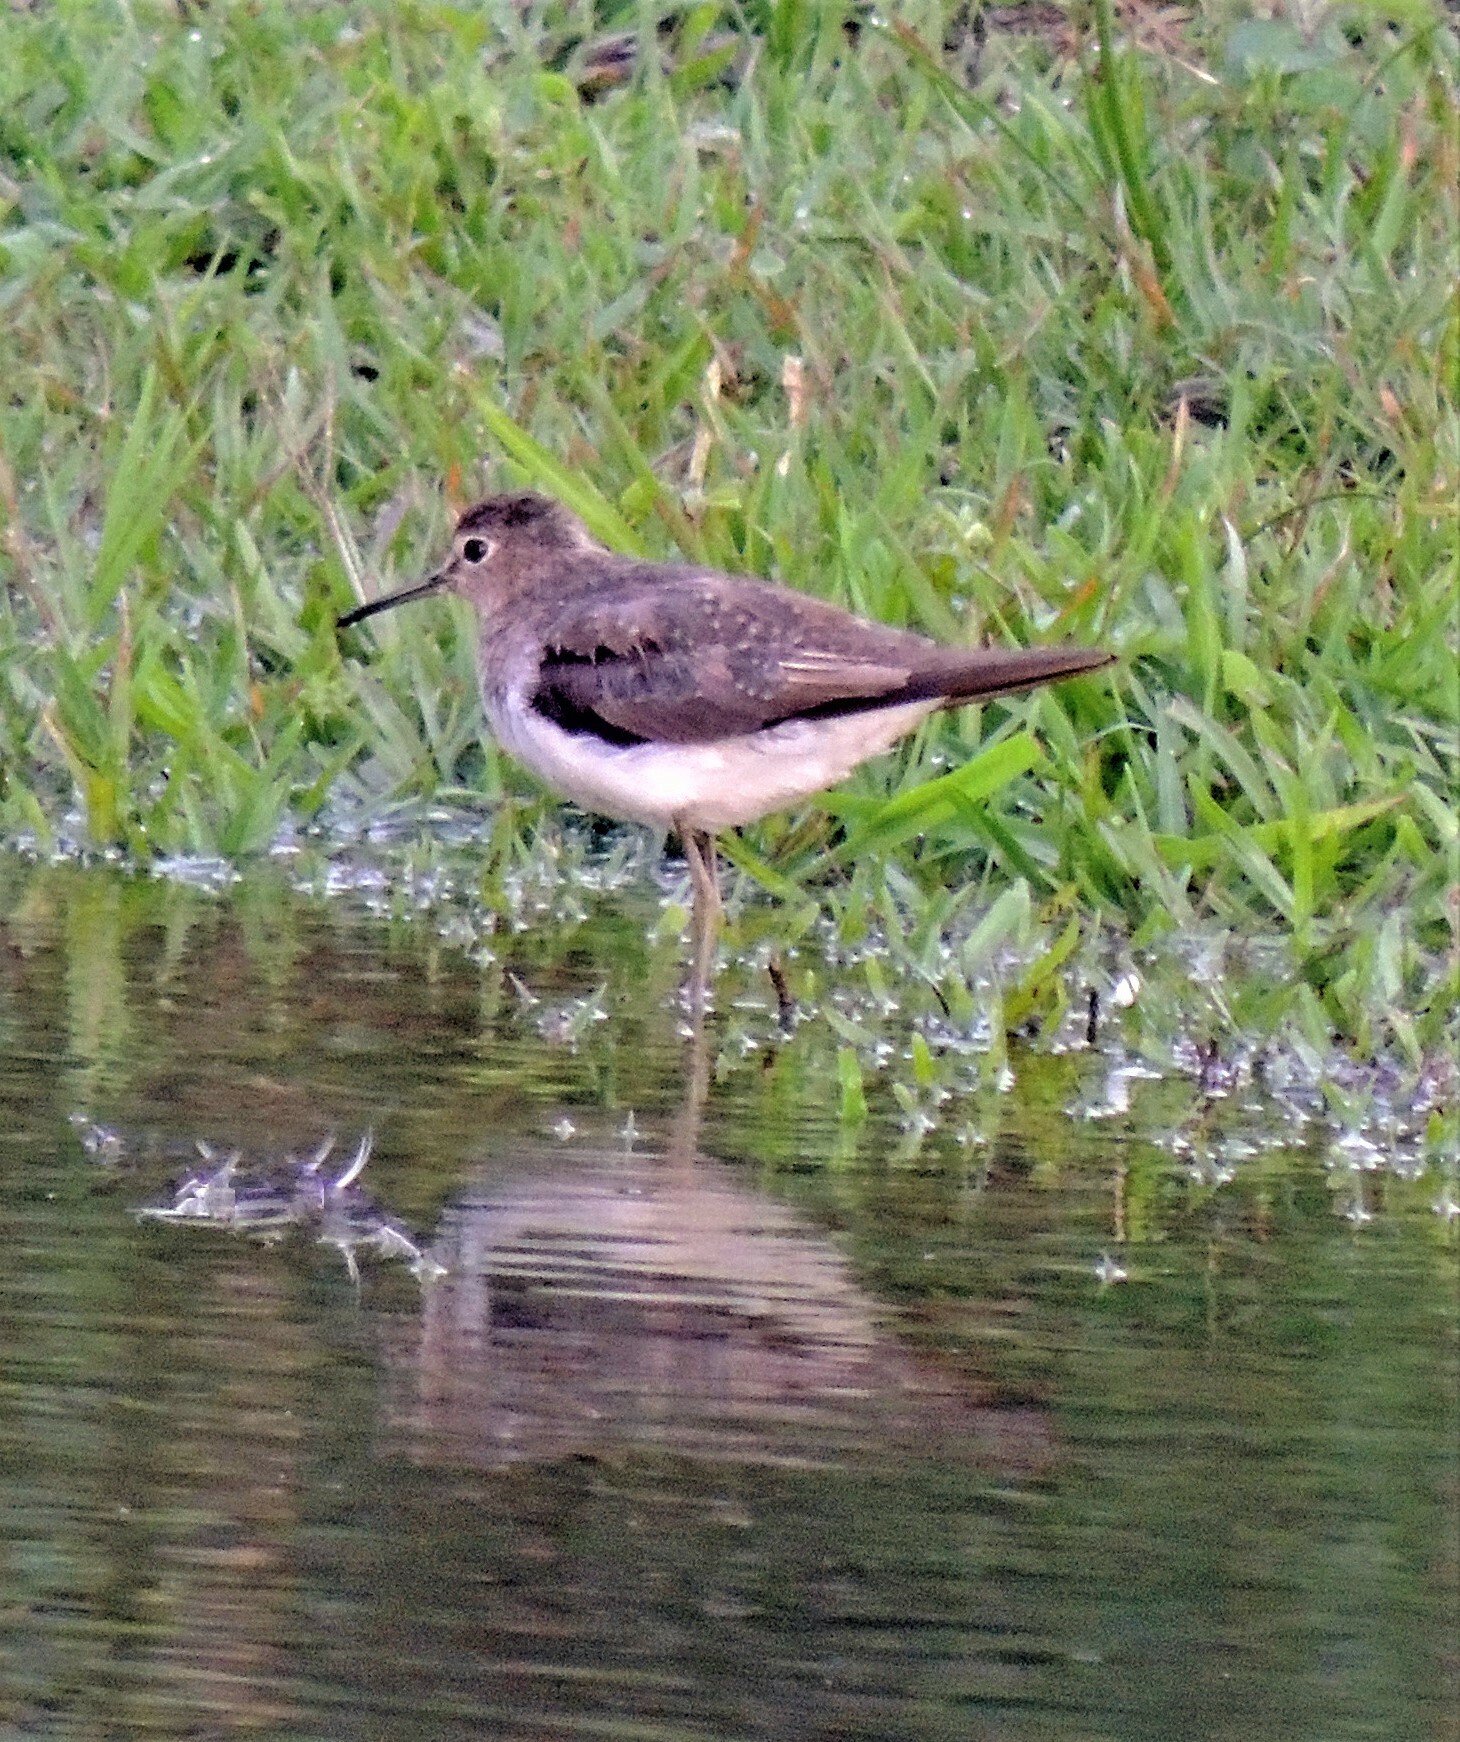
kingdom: Animalia
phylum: Chordata
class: Aves
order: Charadriiformes
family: Scolopacidae
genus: Tringa
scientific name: Tringa solitaria
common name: Solitary sandpiper
